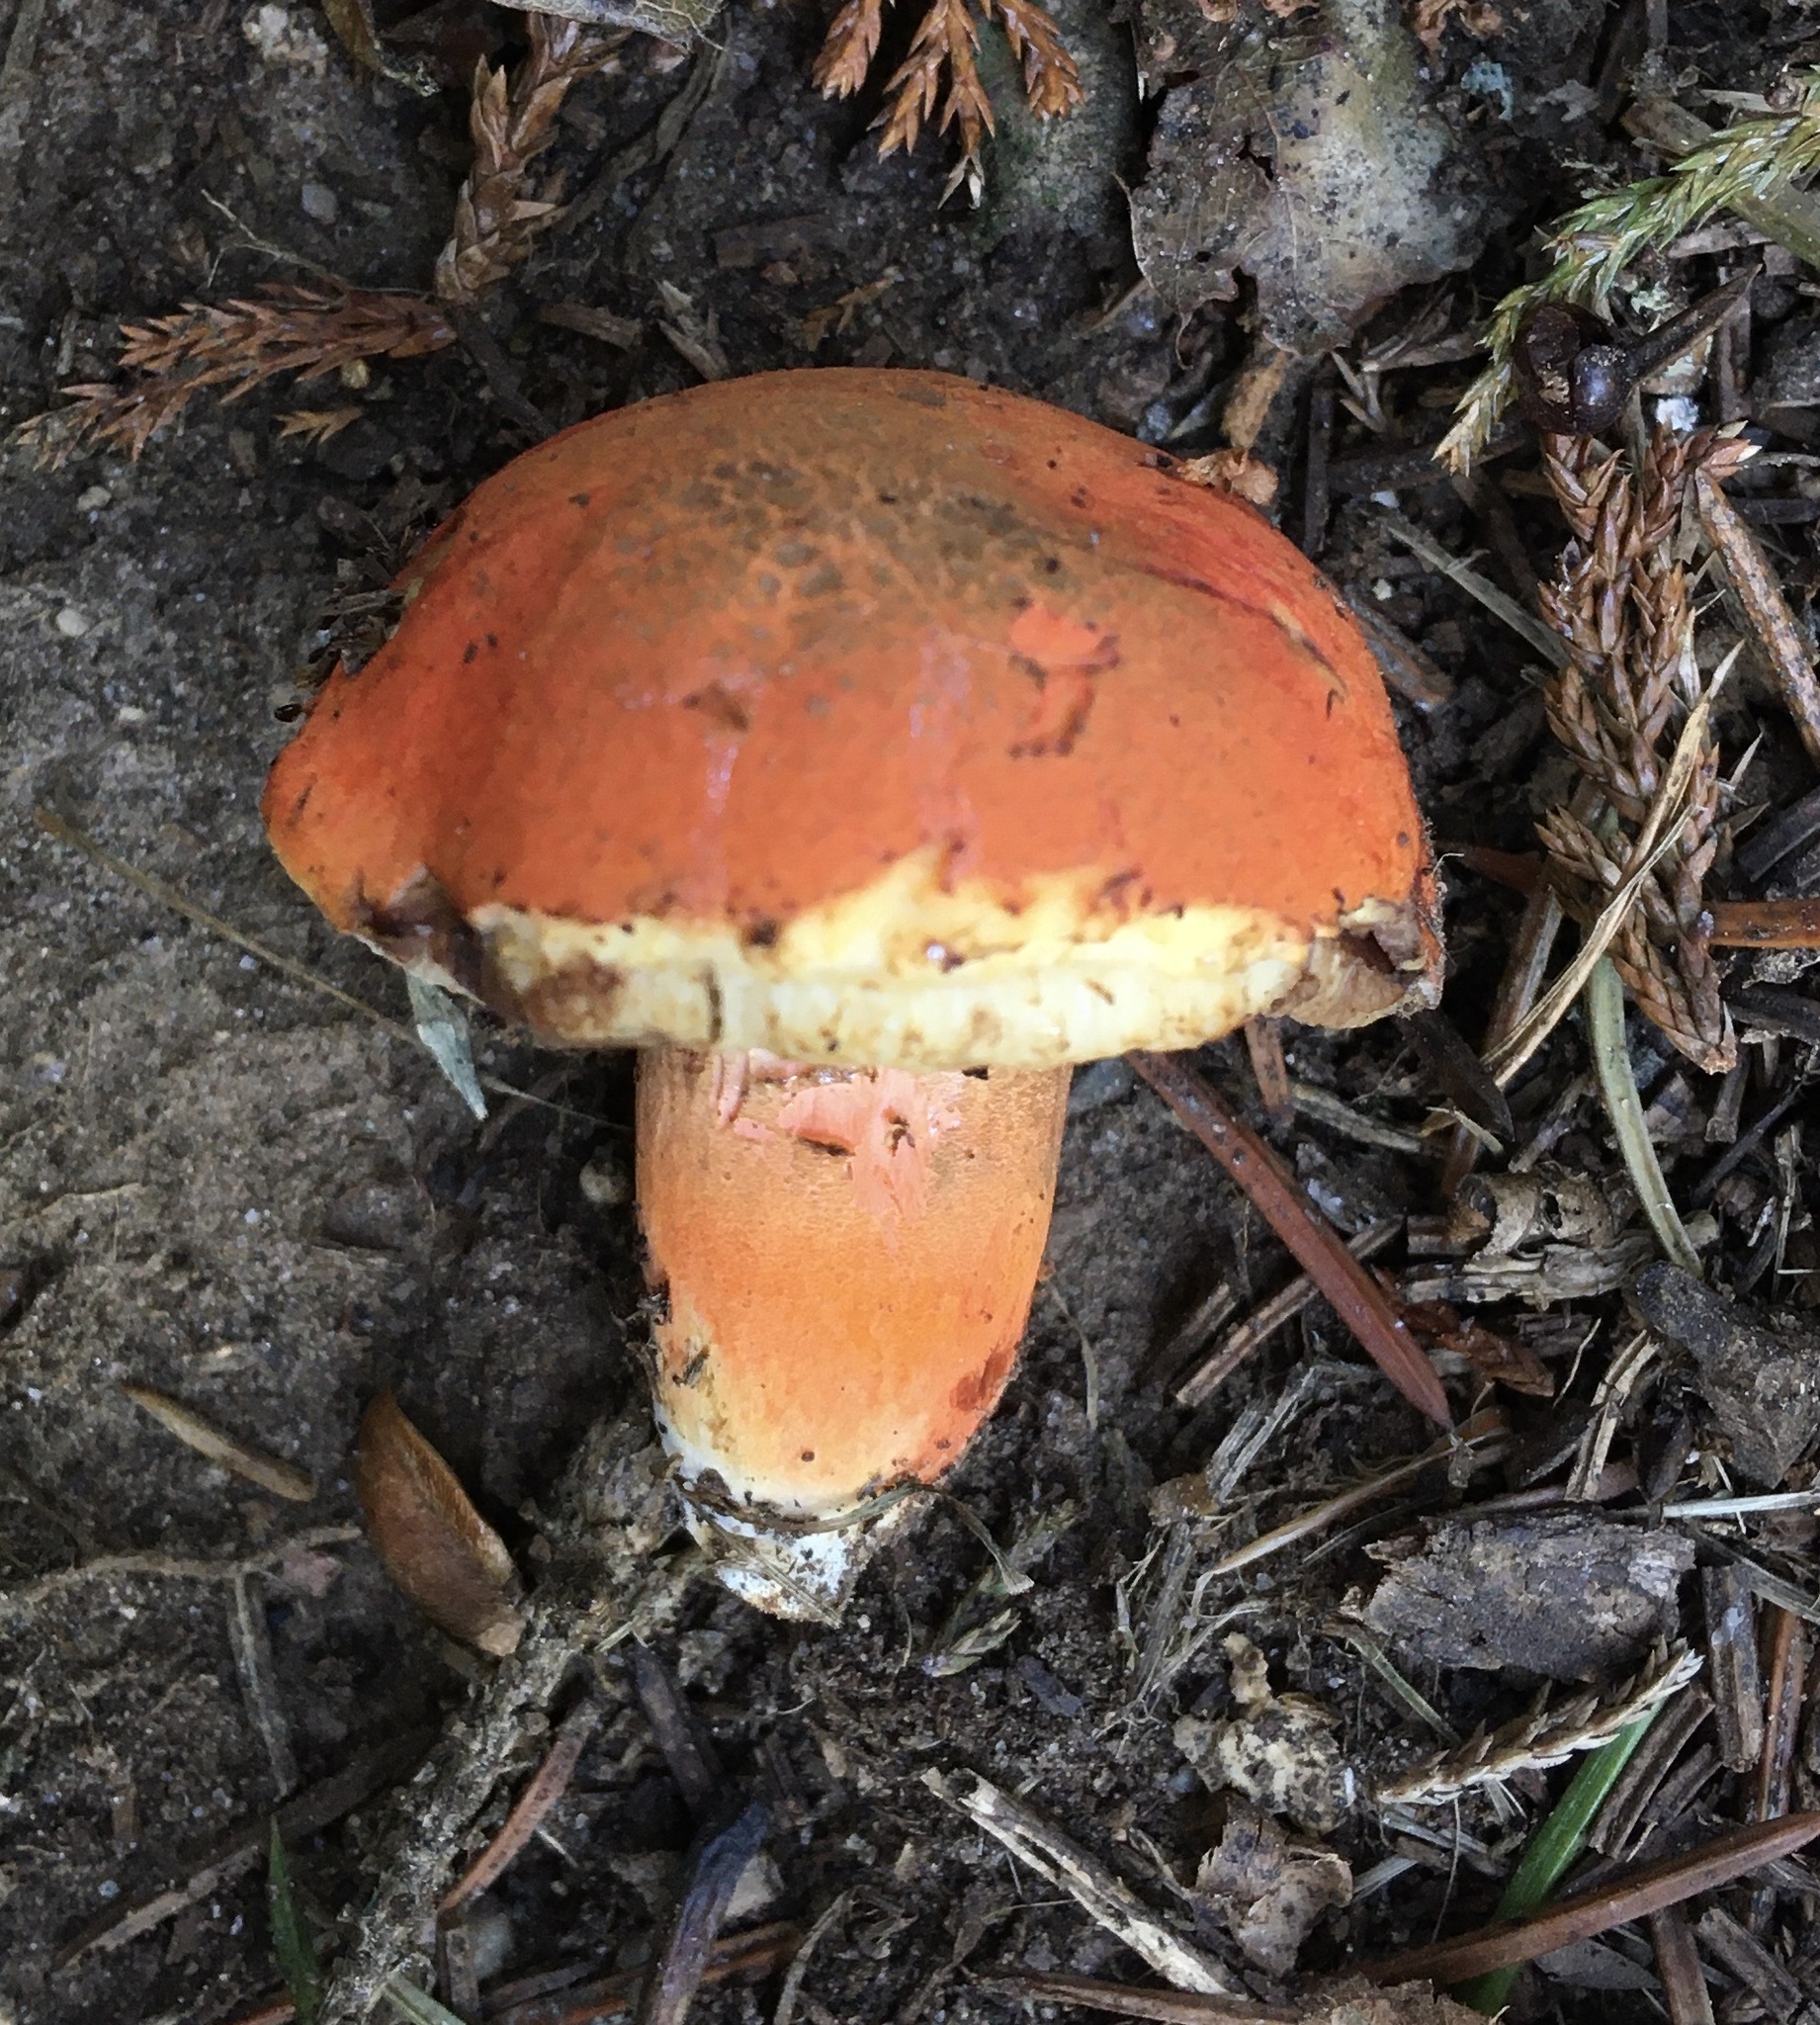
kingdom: Fungi
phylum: Basidiomycota
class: Agaricomycetes
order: Boletales
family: Boletaceae
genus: Tylopilus
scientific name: Tylopilus balloui
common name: Burnt-orange bolete
